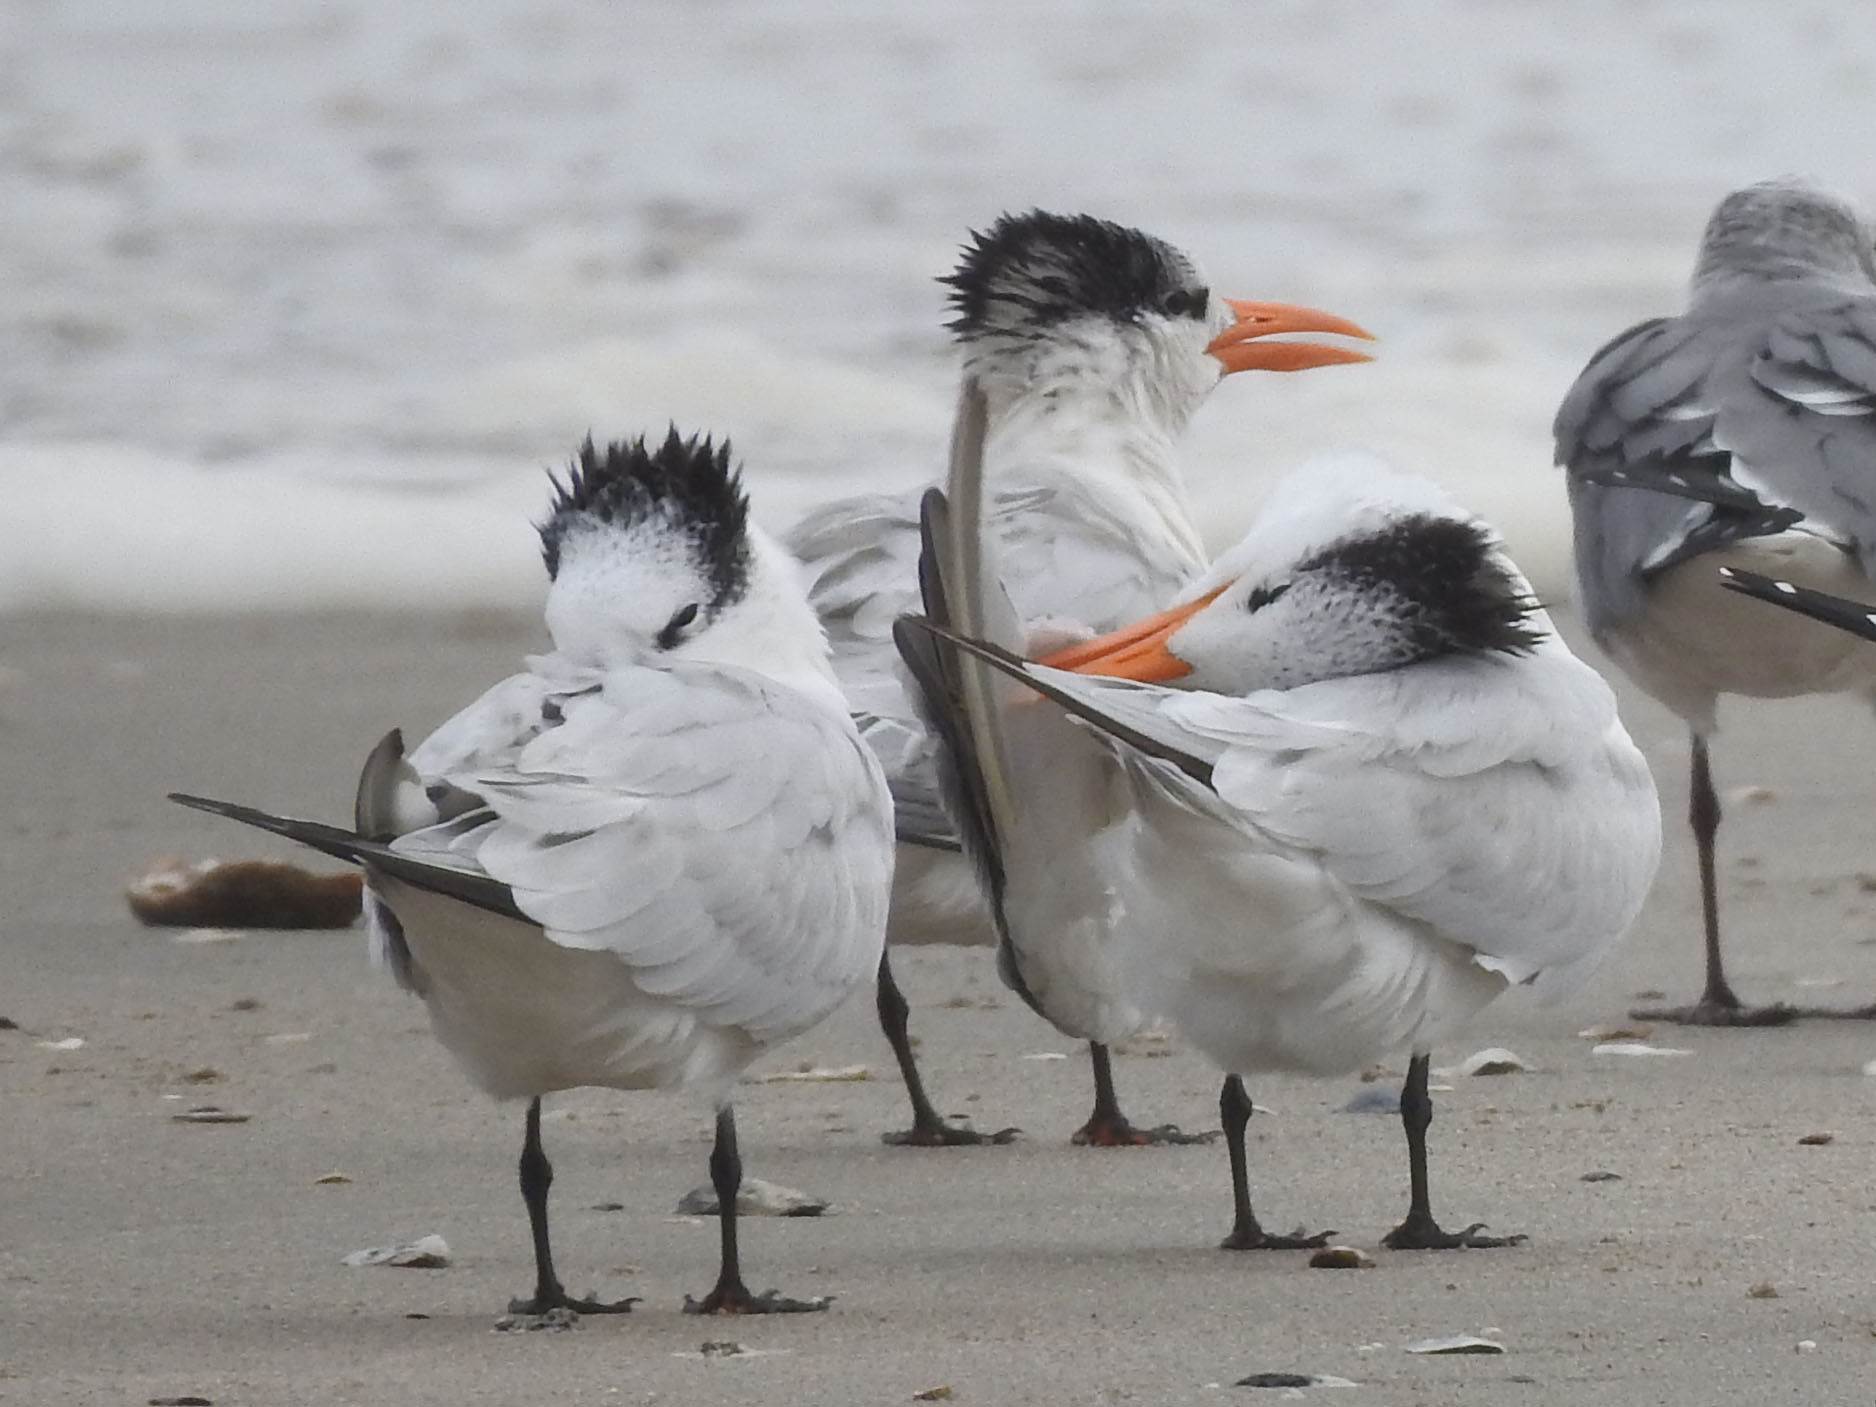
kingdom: Animalia
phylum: Chordata
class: Aves
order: Charadriiformes
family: Laridae
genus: Thalasseus
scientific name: Thalasseus maximus
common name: Royal tern
